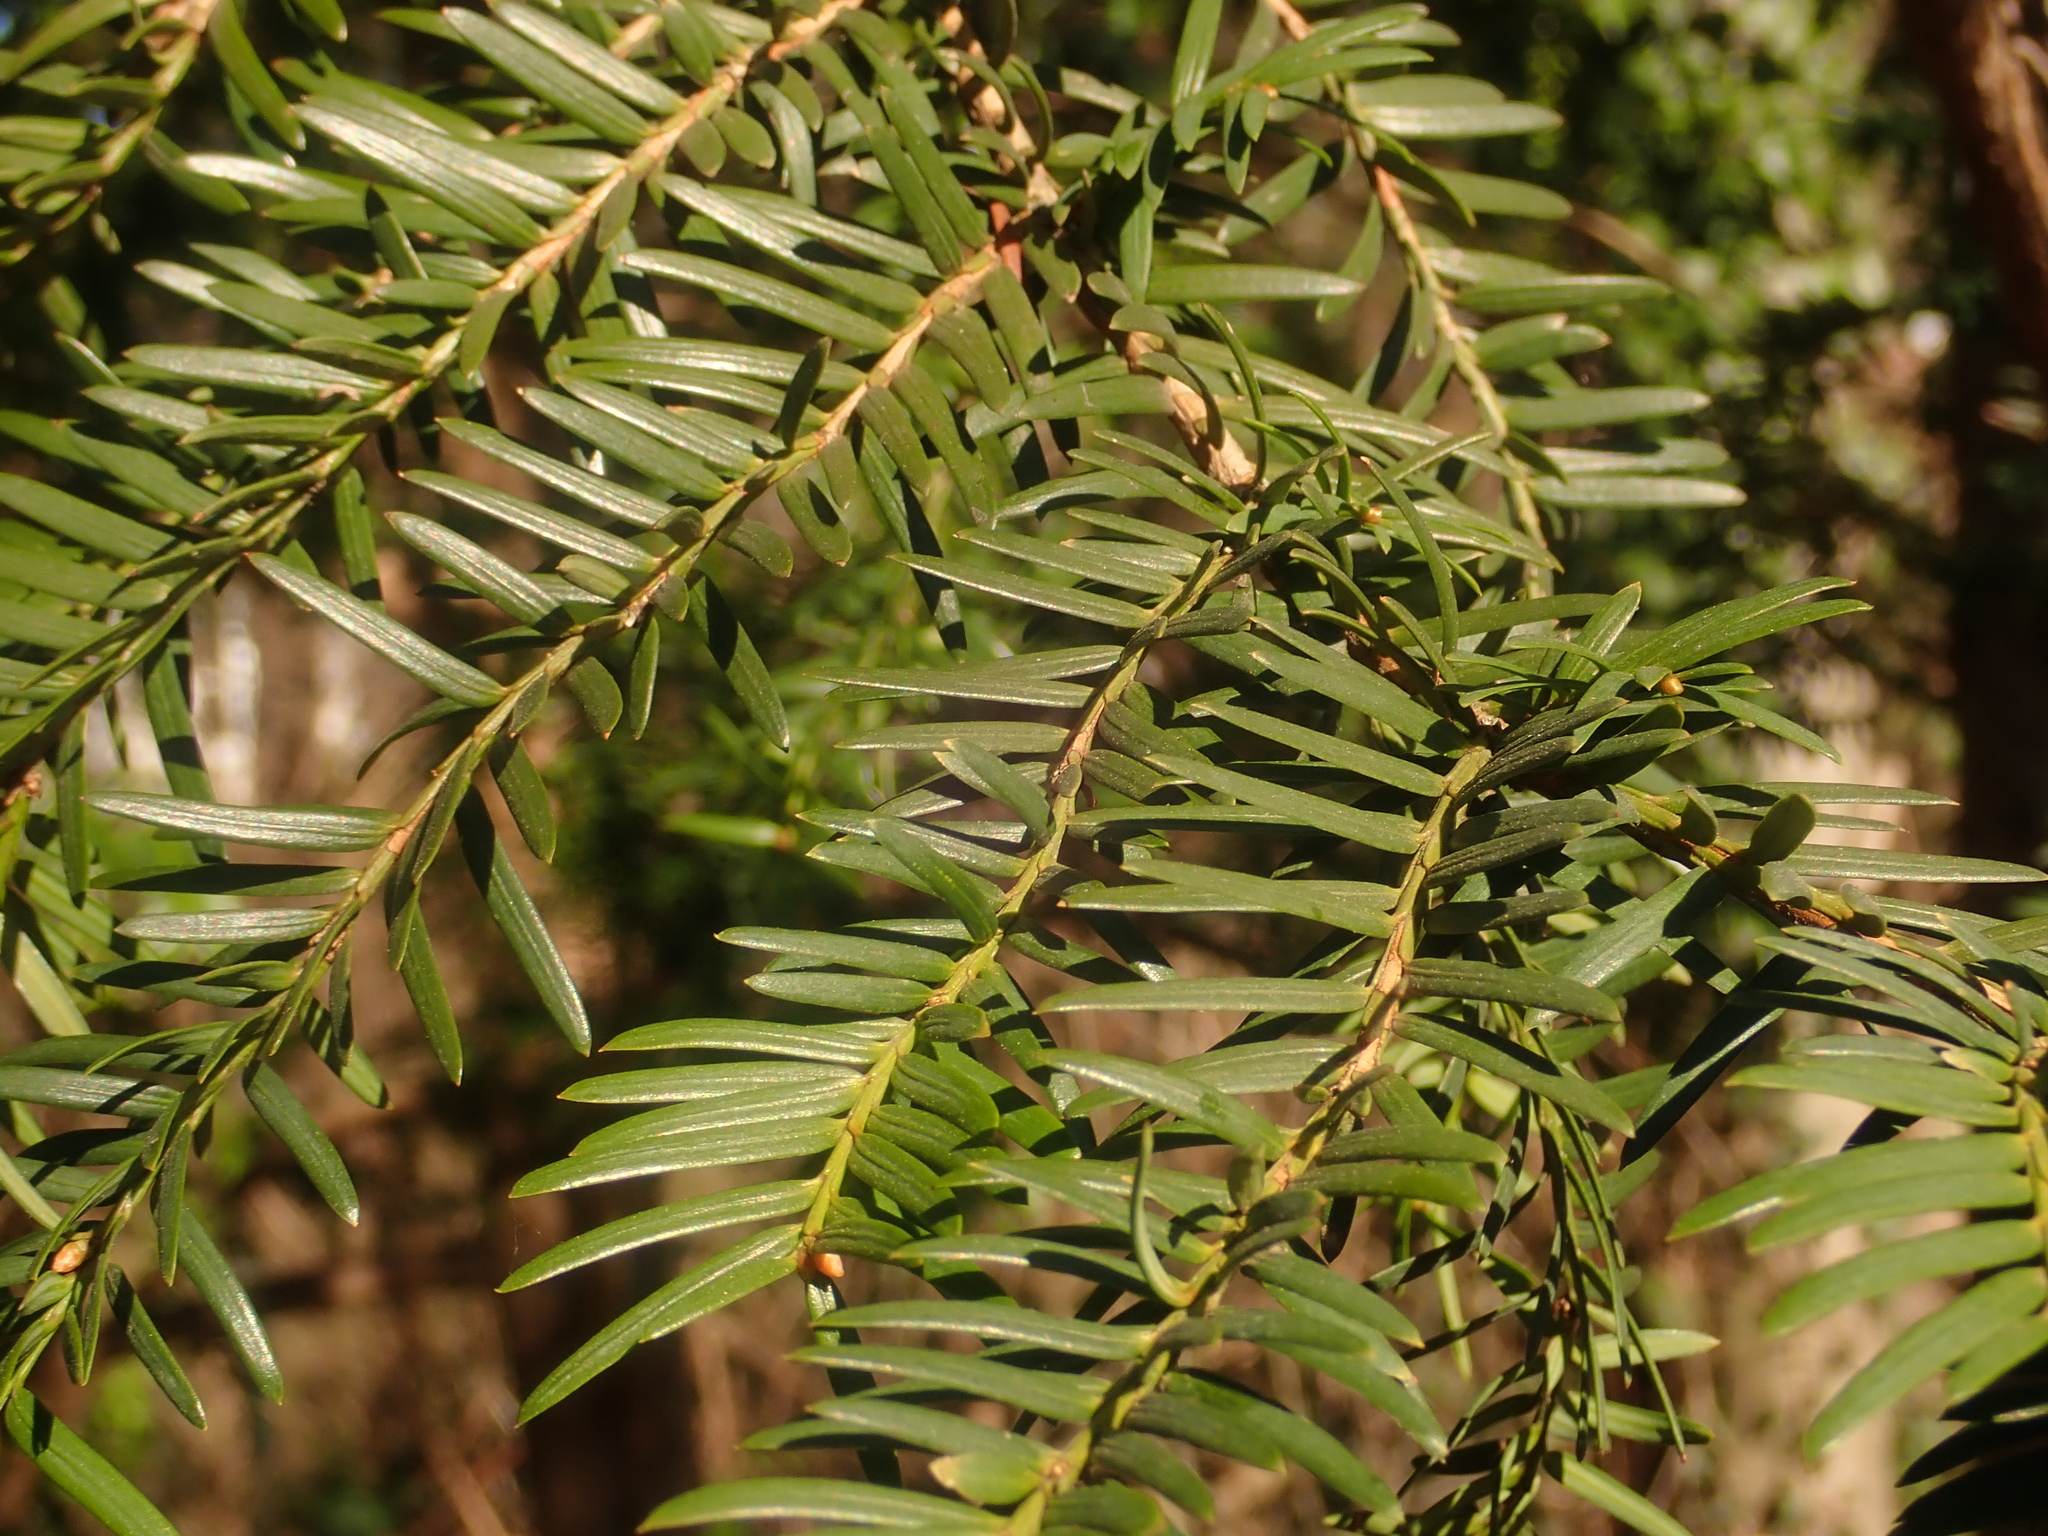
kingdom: Plantae
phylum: Tracheophyta
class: Pinopsida
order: Pinales
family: Taxaceae
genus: Taxus
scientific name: Taxus baccata
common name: Yew
